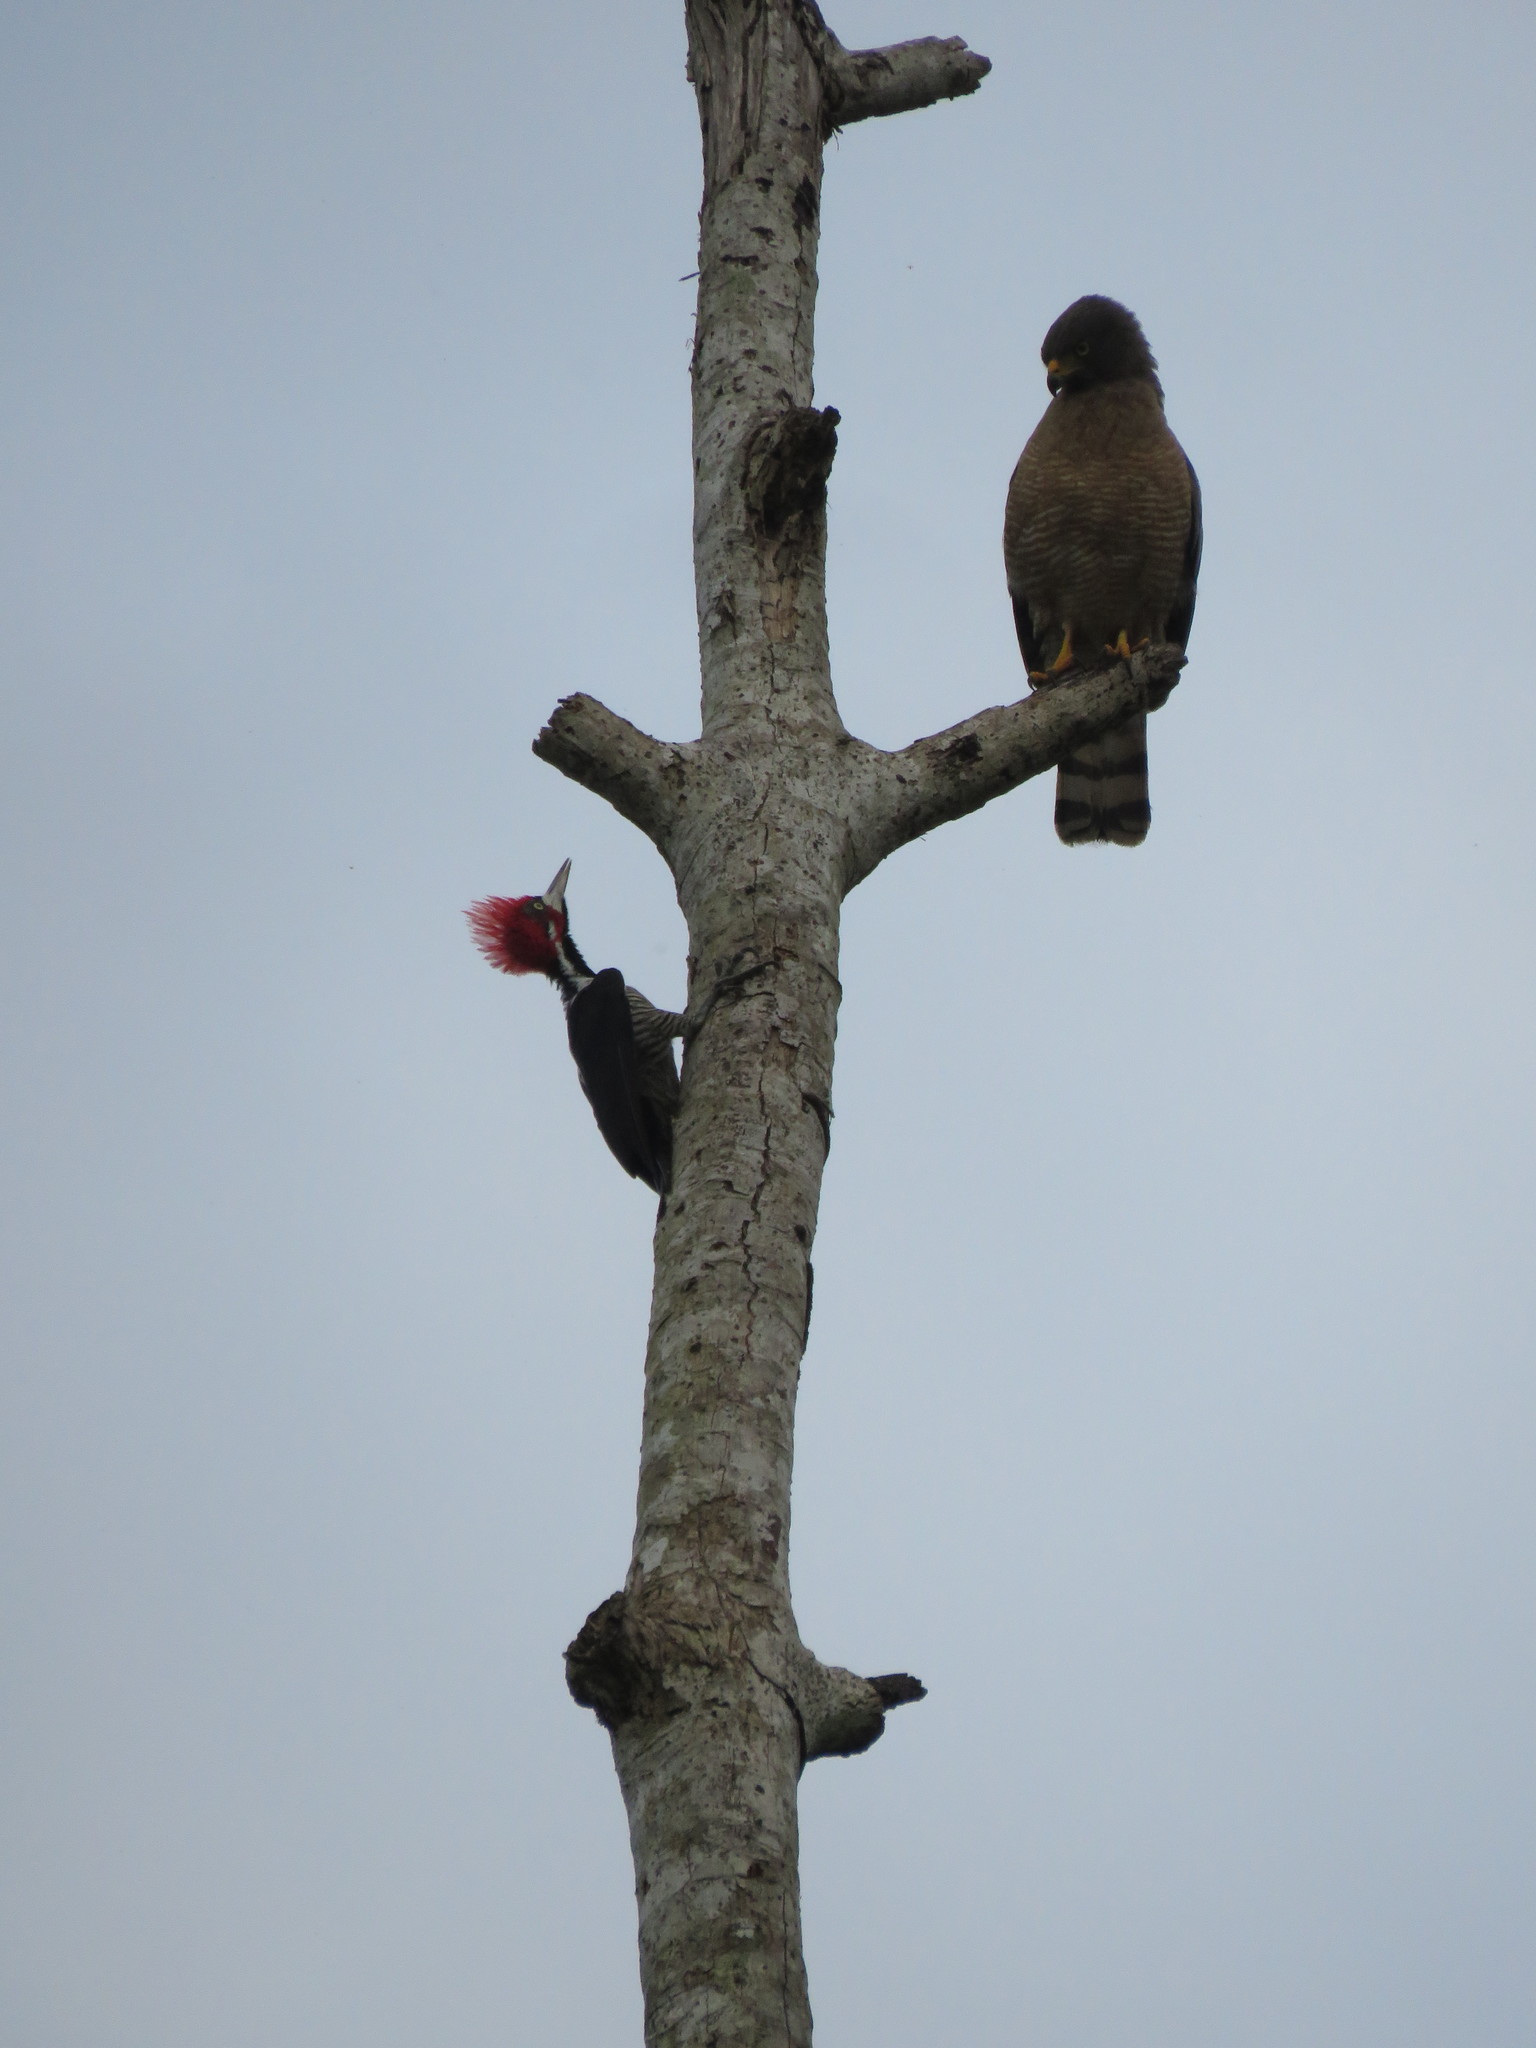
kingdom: Animalia
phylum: Chordata
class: Aves
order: Piciformes
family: Picidae
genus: Campephilus
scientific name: Campephilus melanoleucos
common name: Crimson-crested woodpecker
